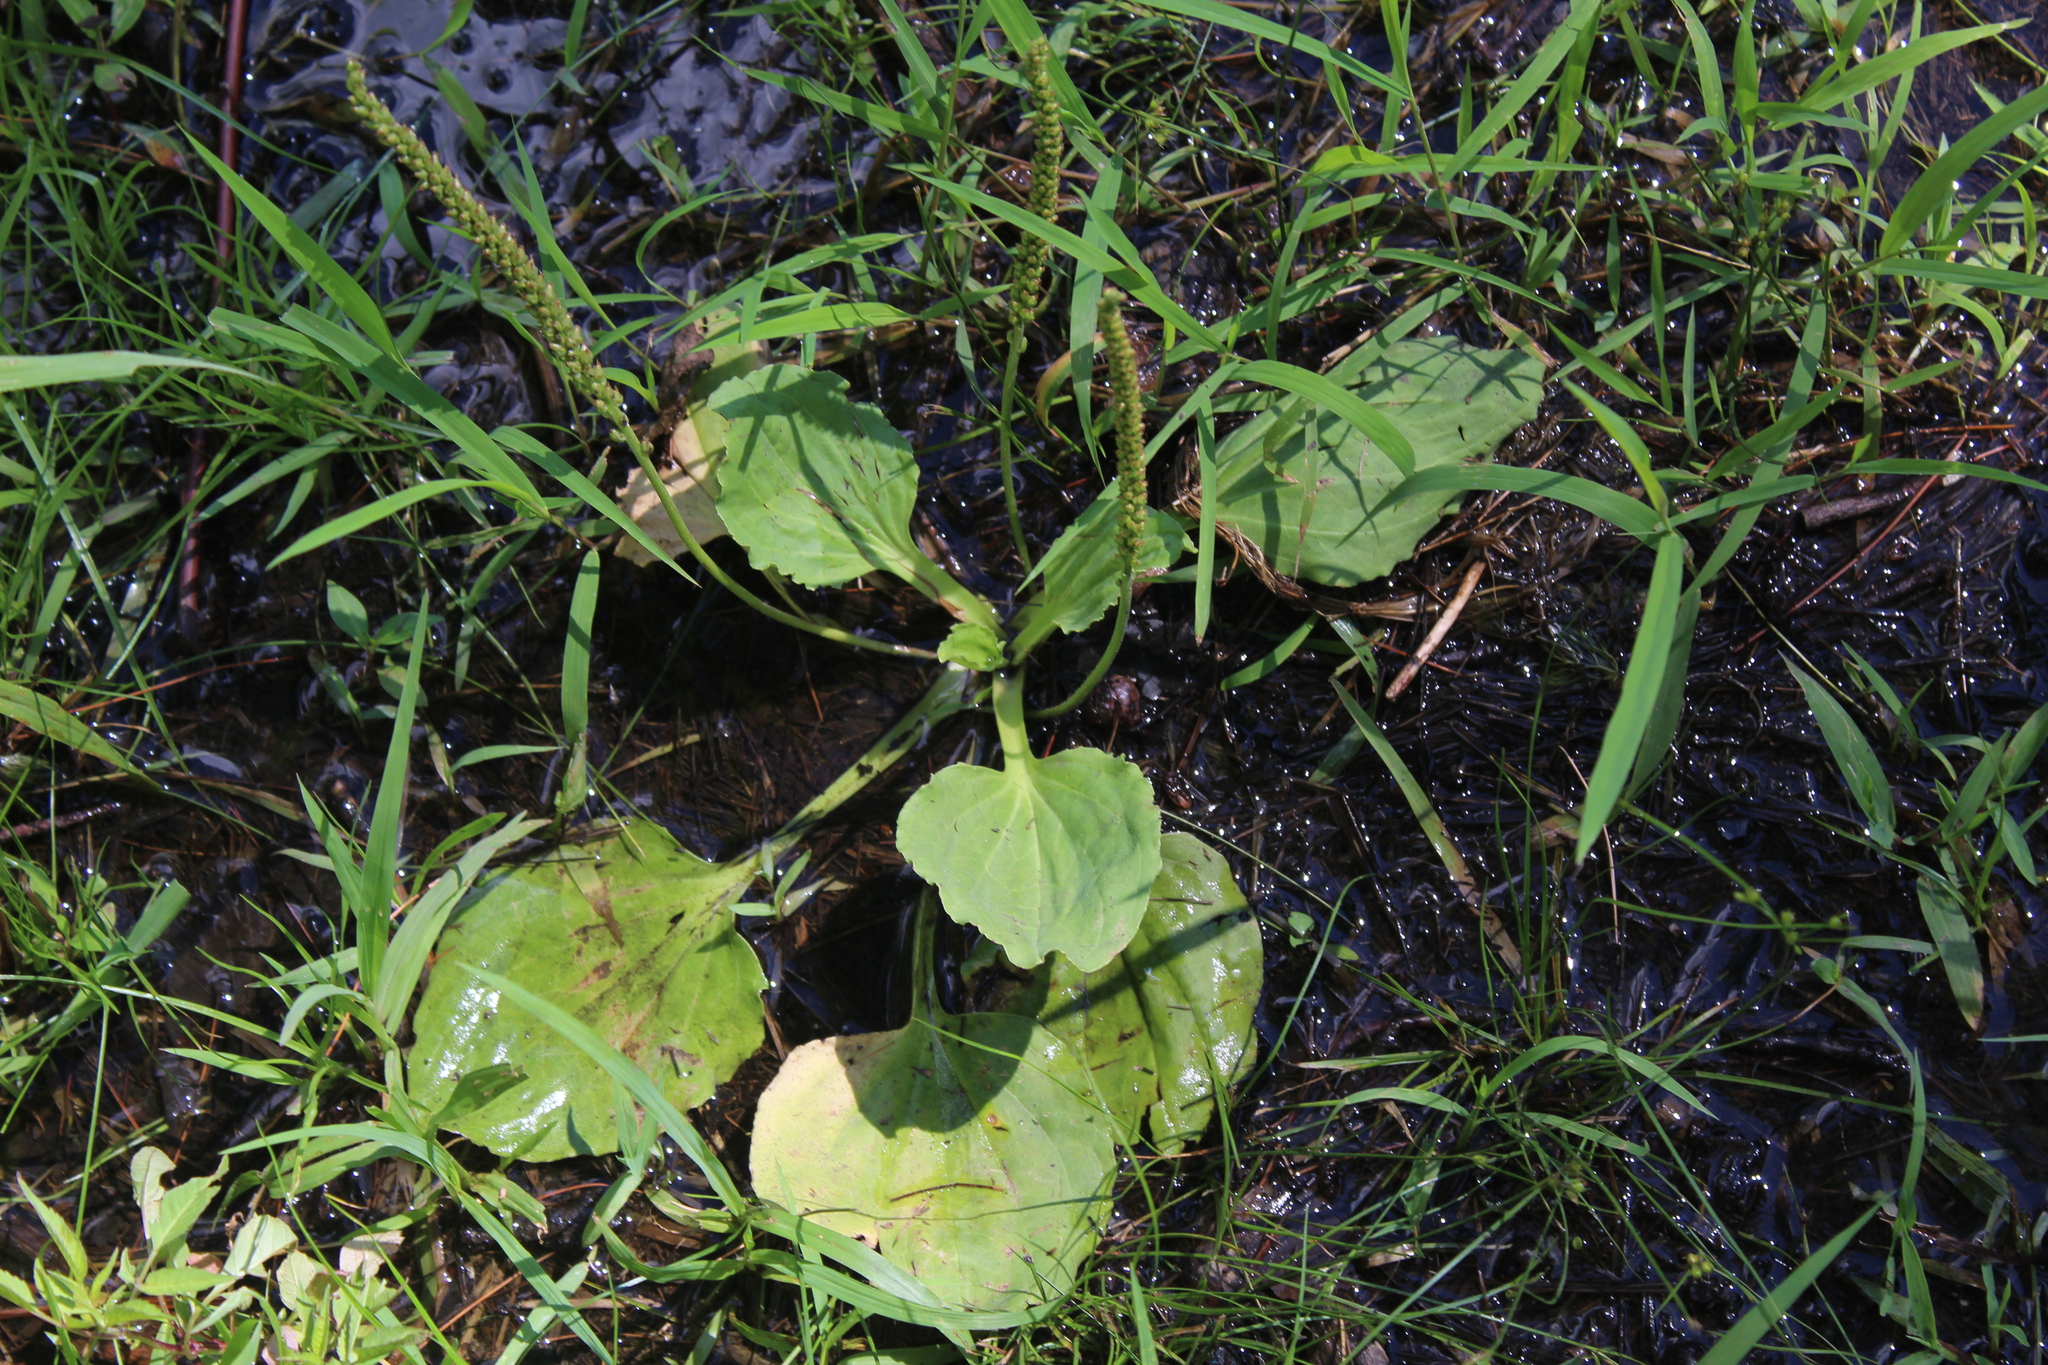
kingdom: Plantae
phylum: Tracheophyta
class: Magnoliopsida
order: Lamiales
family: Plantaginaceae
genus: Plantago
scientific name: Plantago major
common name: Common plantain
